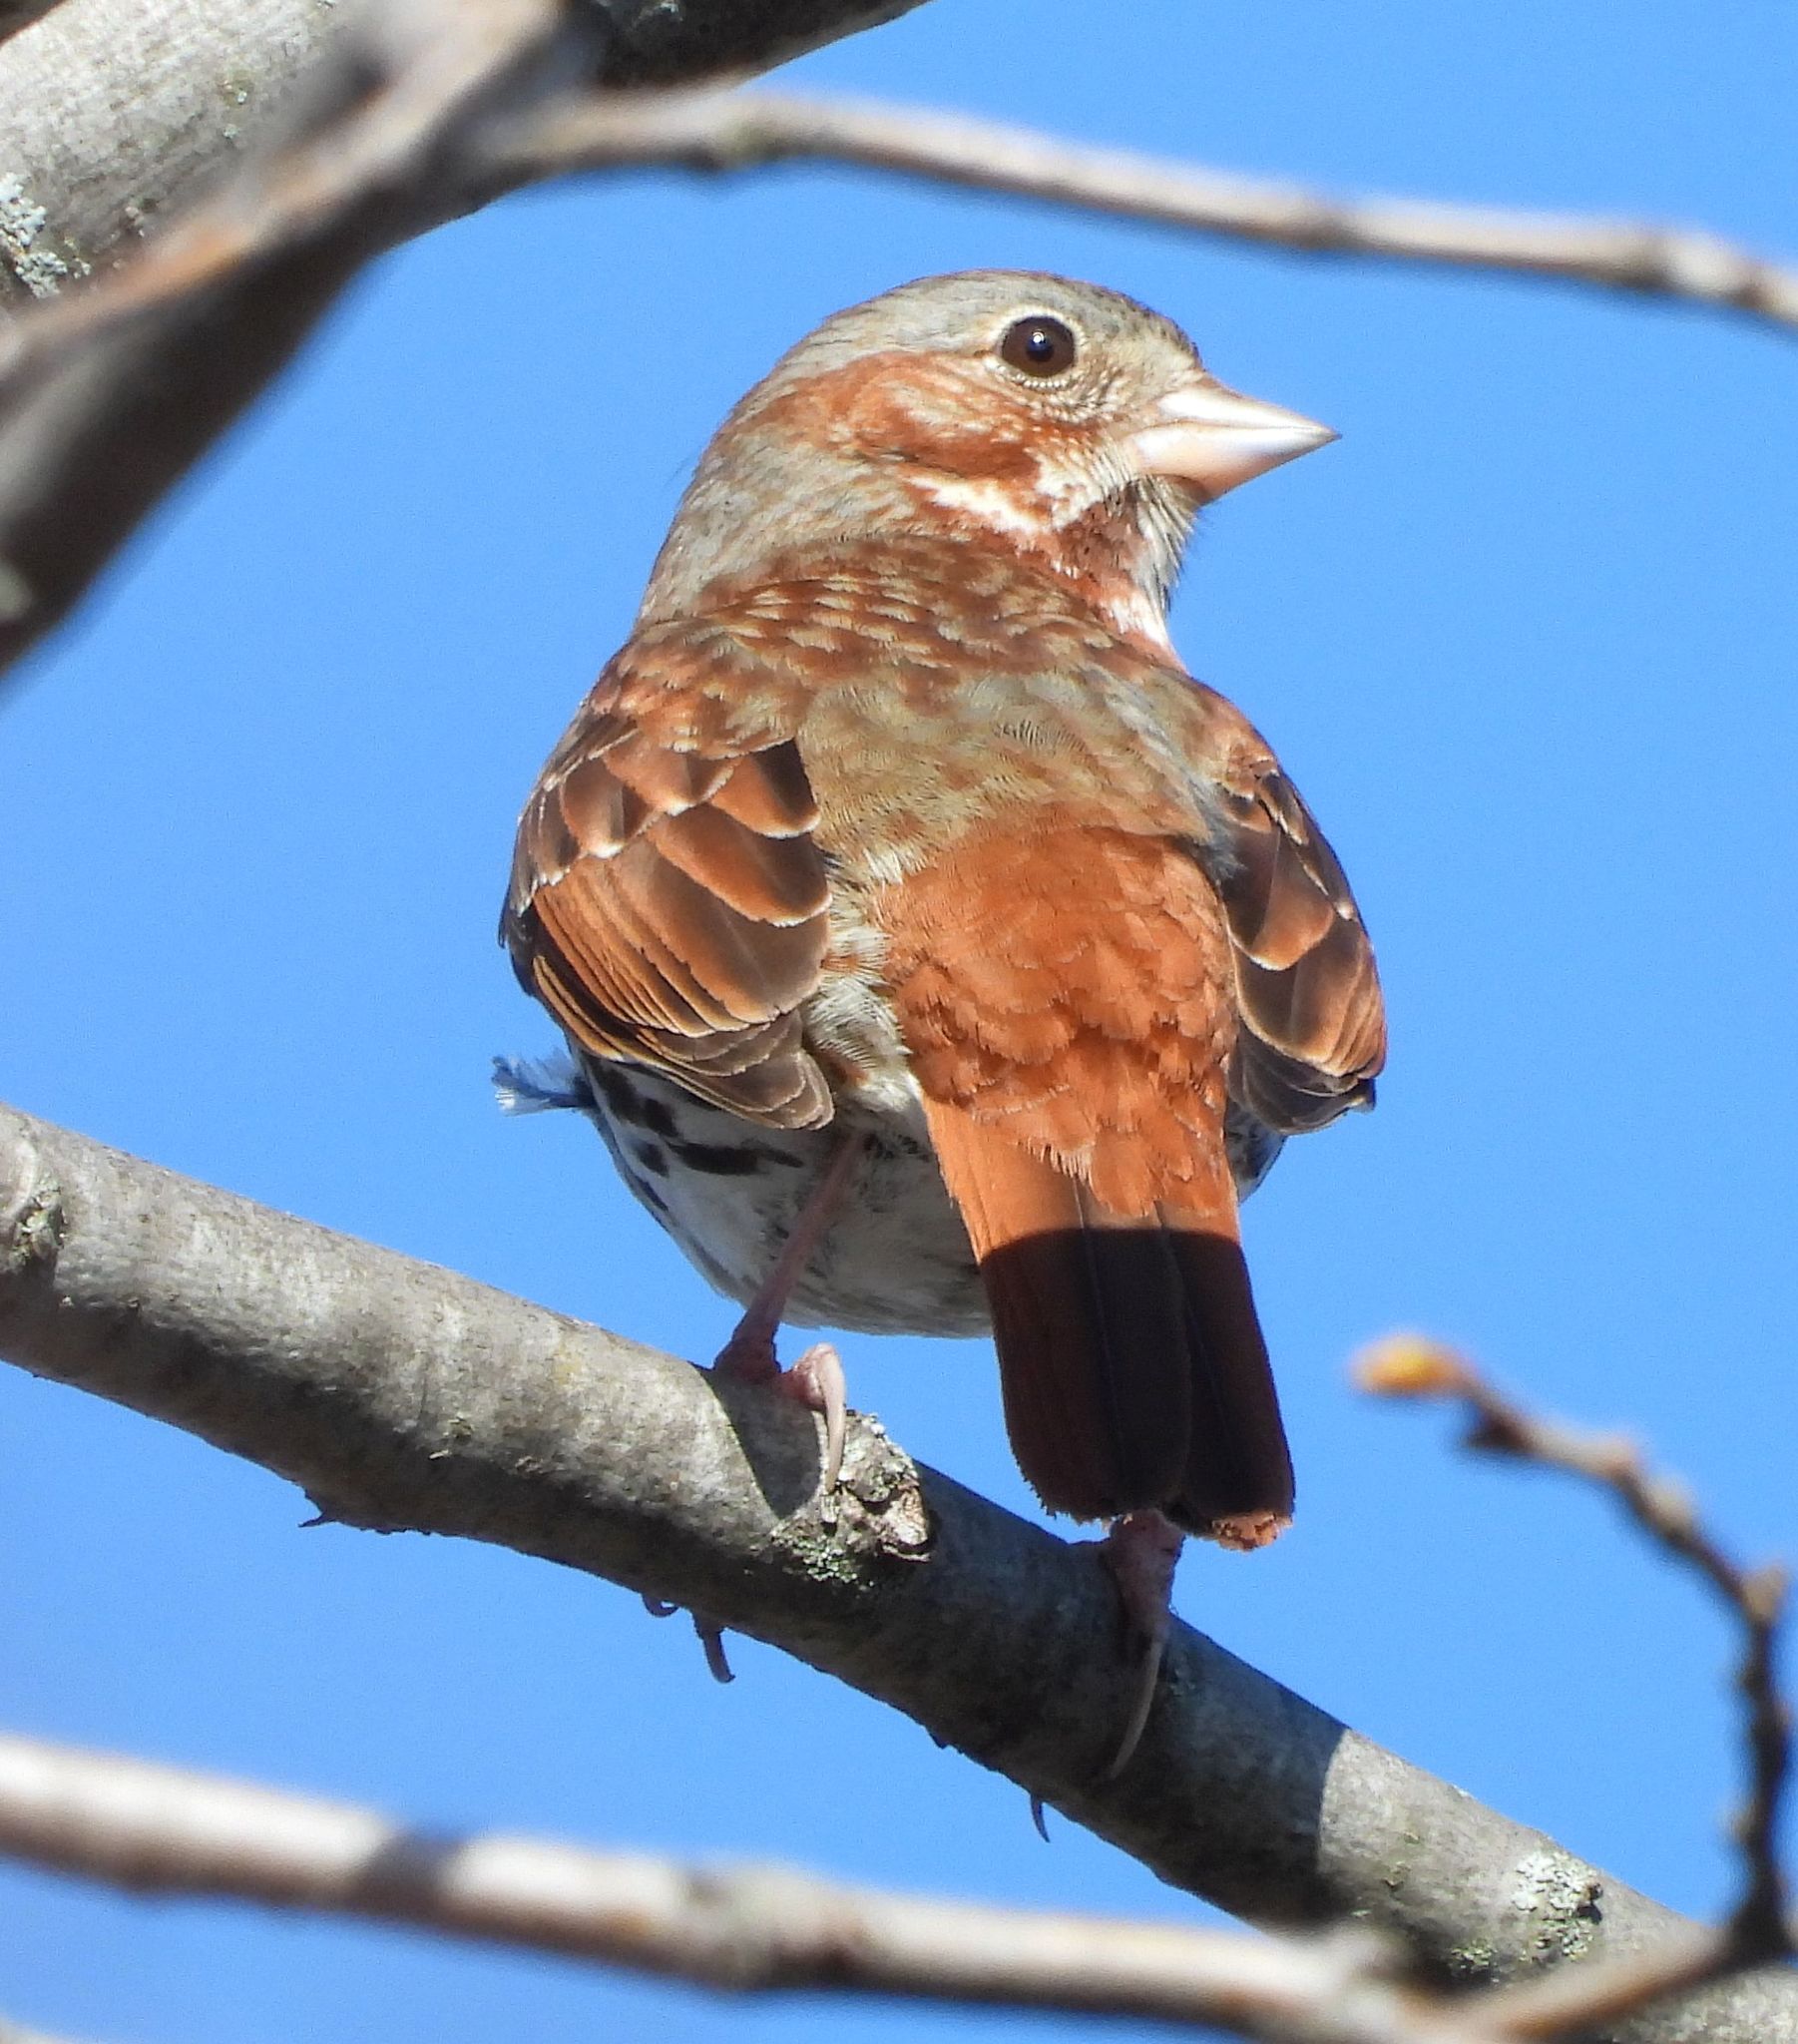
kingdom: Animalia
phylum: Chordata
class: Aves
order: Passeriformes
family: Passerellidae
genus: Passerella
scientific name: Passerella iliaca
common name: Fox sparrow
